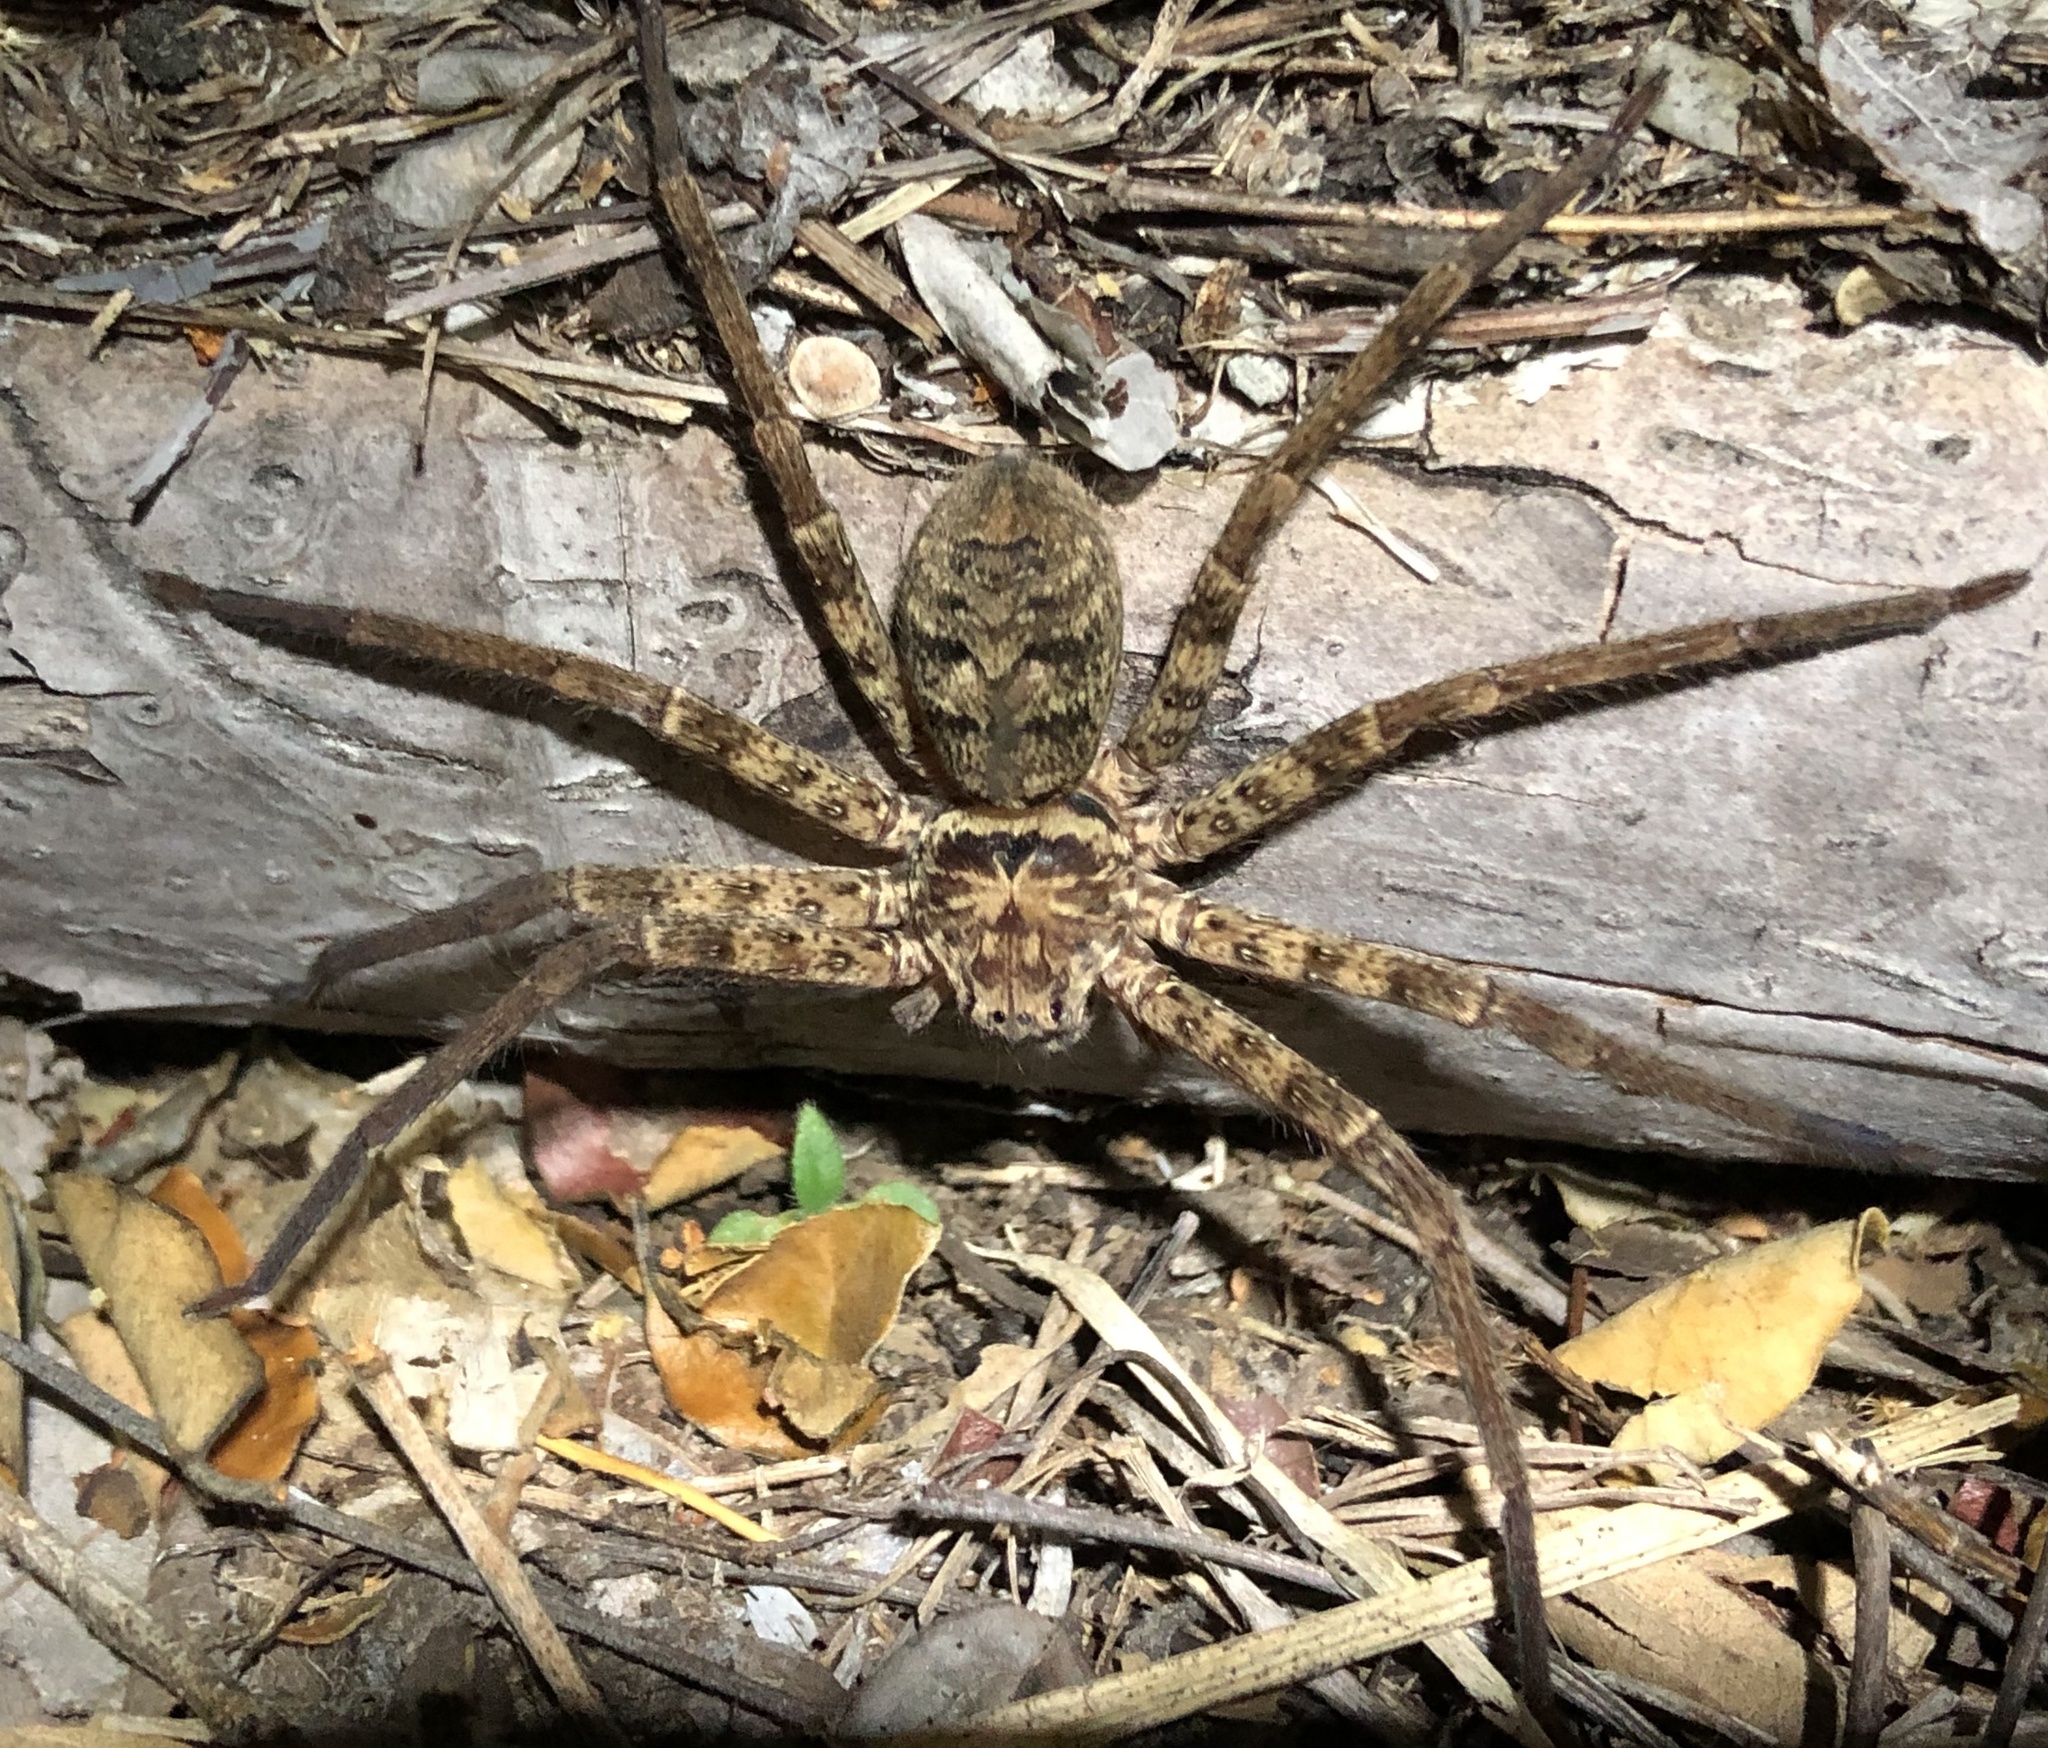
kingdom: Animalia
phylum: Arthropoda
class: Arachnida
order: Araneae
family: Sparassidae
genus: Heteropoda
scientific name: Heteropoda jugulans
